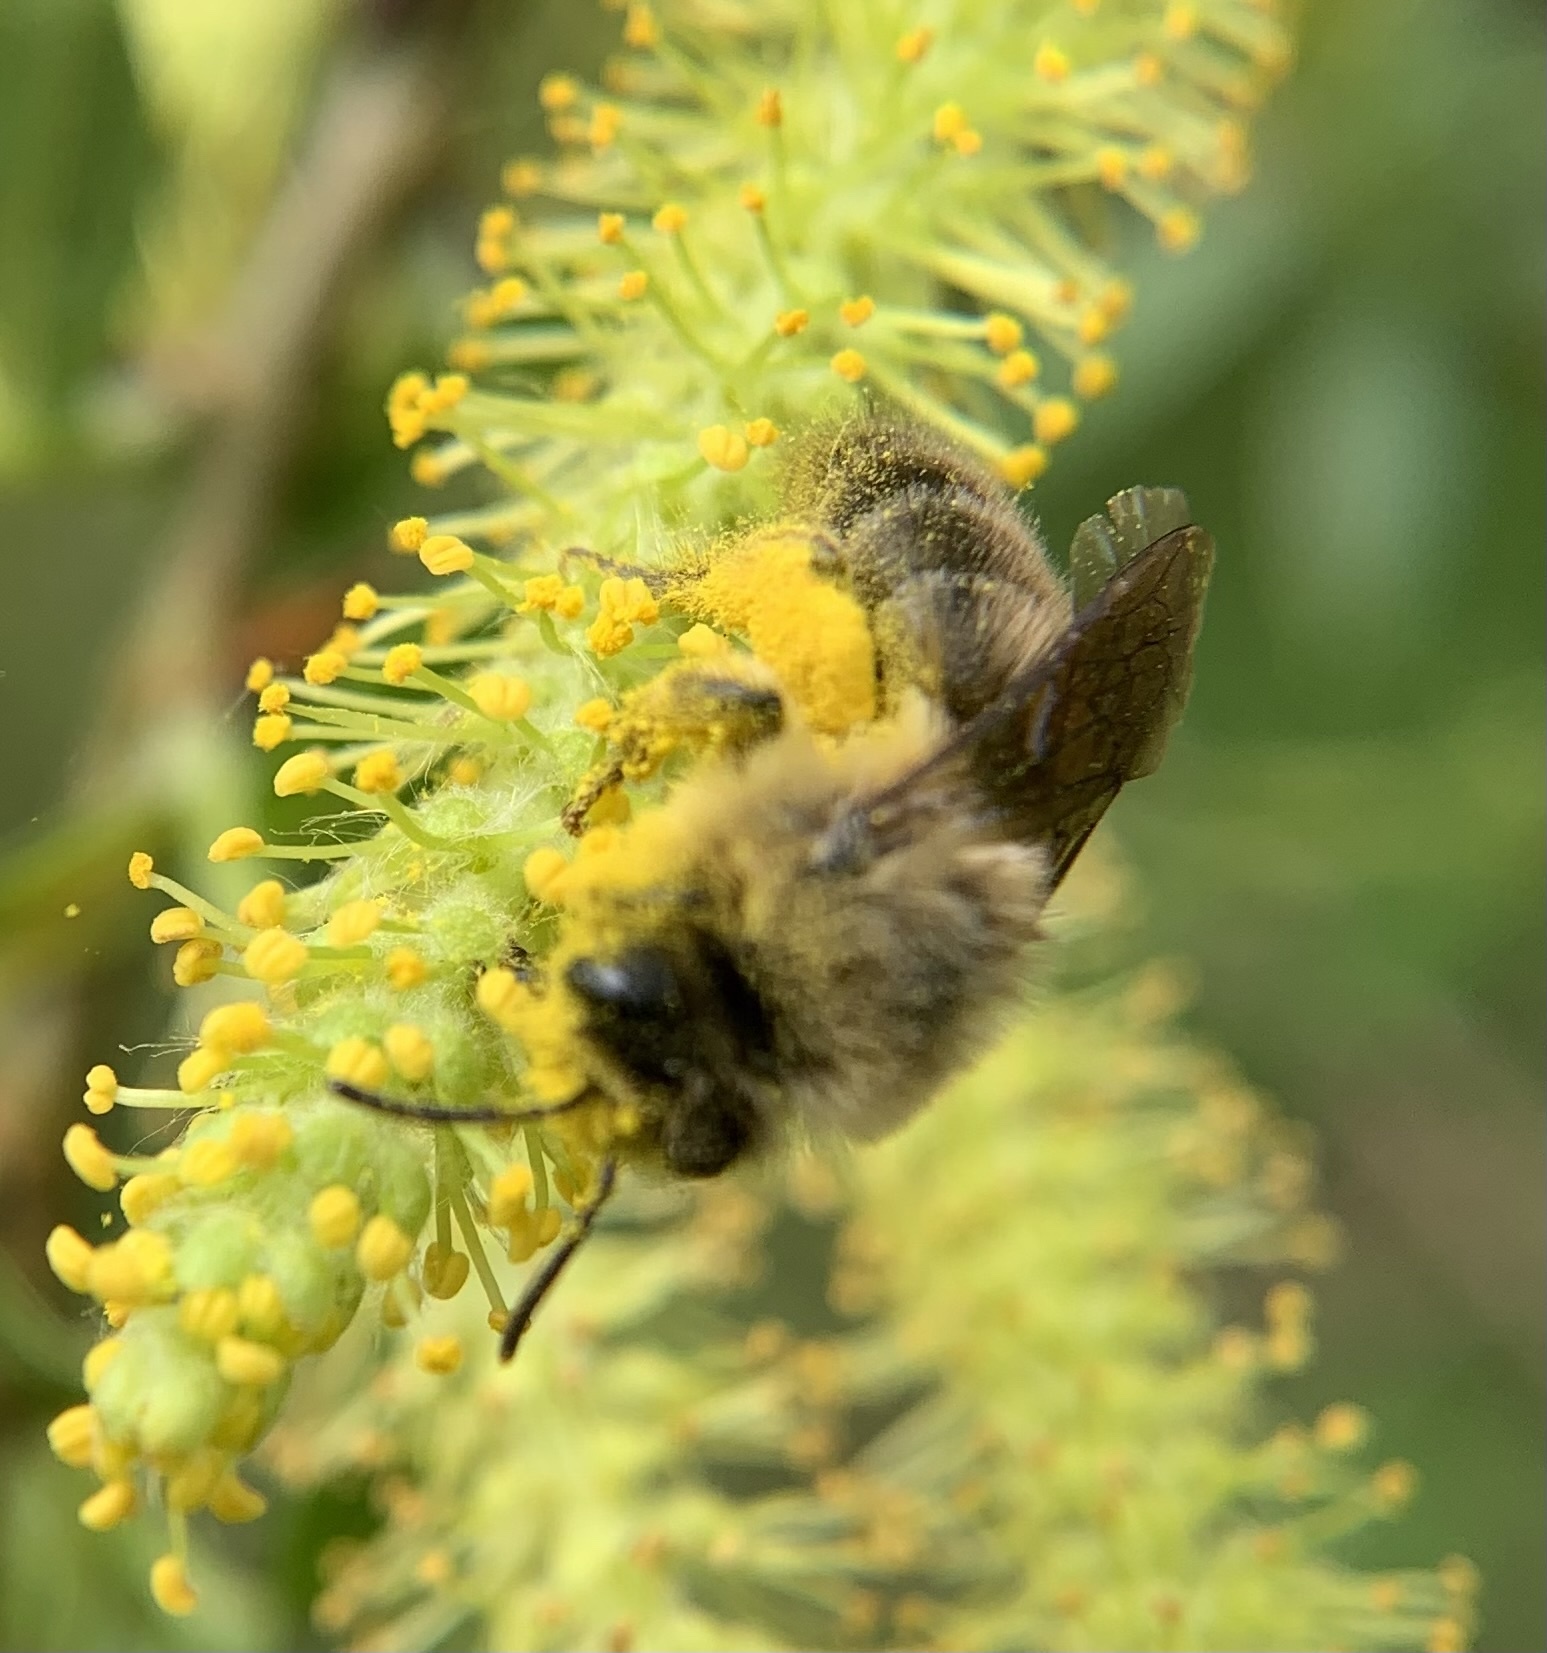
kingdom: Animalia
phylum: Arthropoda
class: Insecta
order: Hymenoptera
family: Colletidae
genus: Colletes
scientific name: Colletes cunicularius
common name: Early colletes
